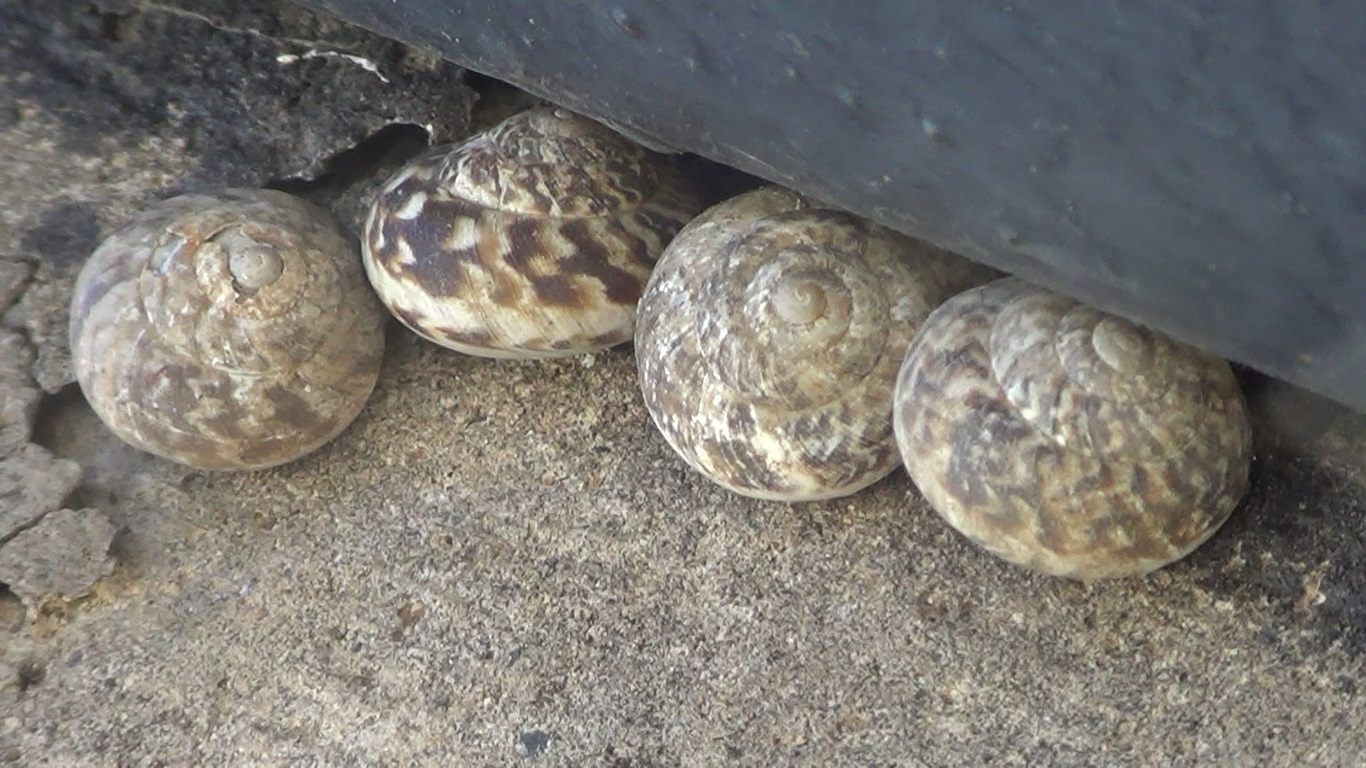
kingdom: Animalia
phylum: Mollusca
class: Gastropoda
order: Stylommatophora
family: Helicidae
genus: Marmorana
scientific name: Marmorana muralis
